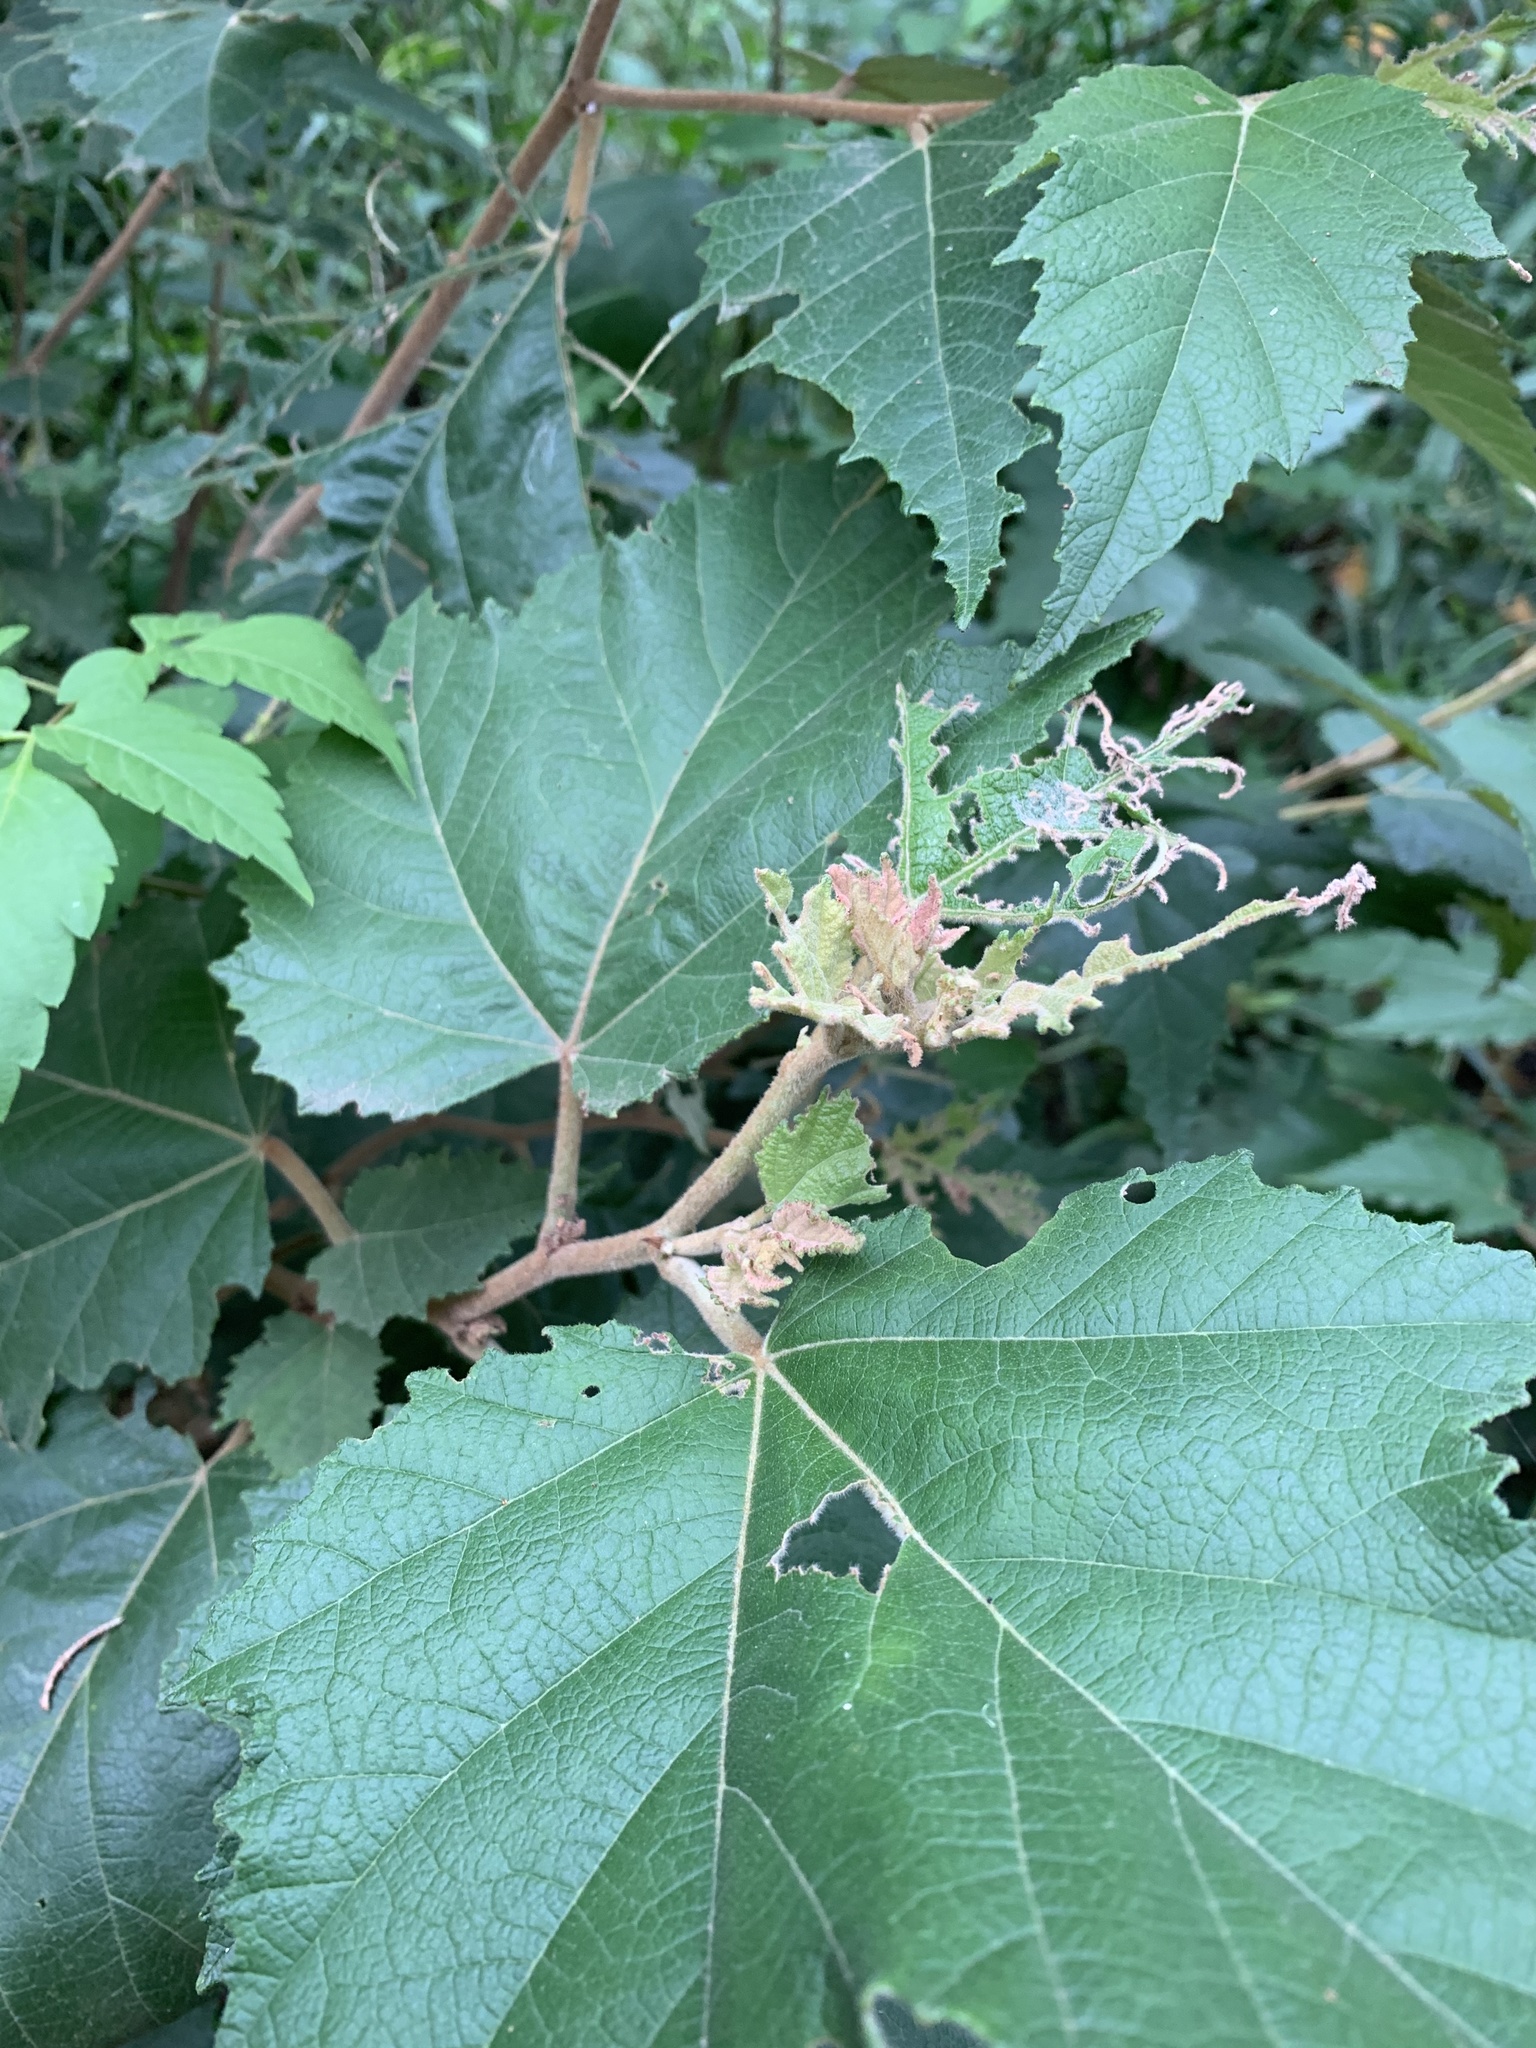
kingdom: Plantae
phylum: Tracheophyta
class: Magnoliopsida
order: Malvales
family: Malvaceae
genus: Androcalva
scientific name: Androcalva fraseri
